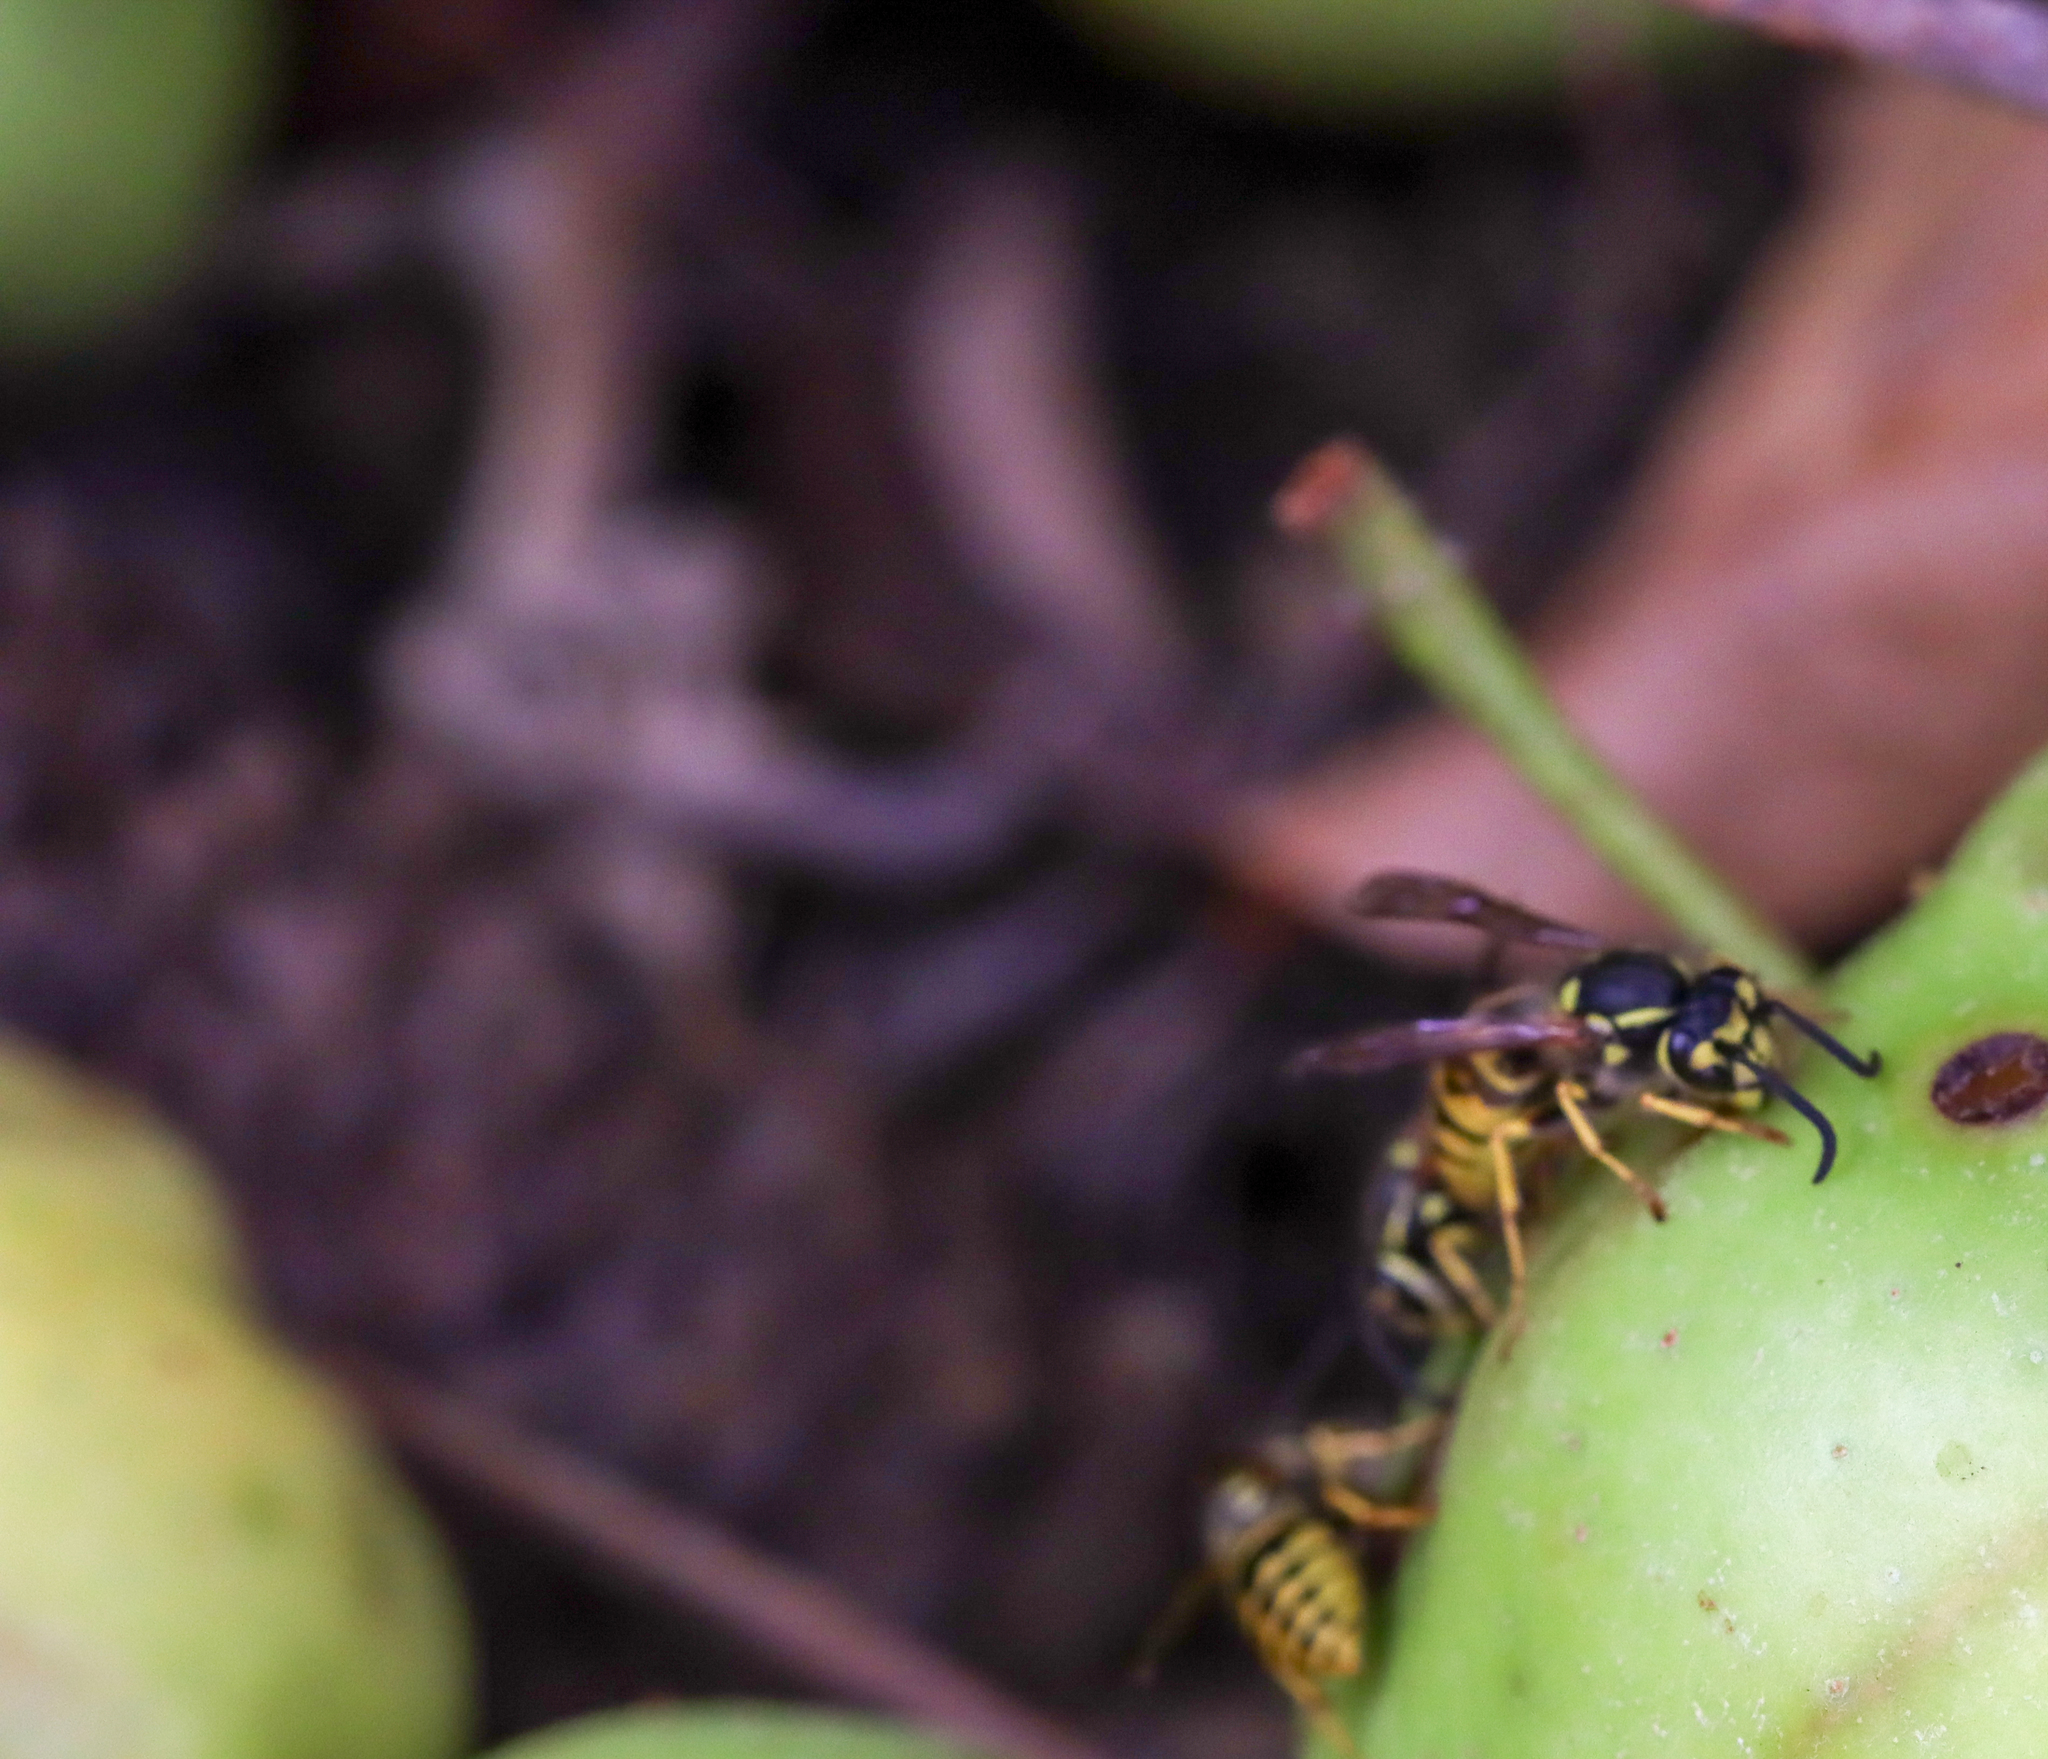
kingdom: Animalia
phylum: Arthropoda
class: Insecta
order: Hymenoptera
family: Vespidae
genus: Vespula
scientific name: Vespula germanica
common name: German wasp
